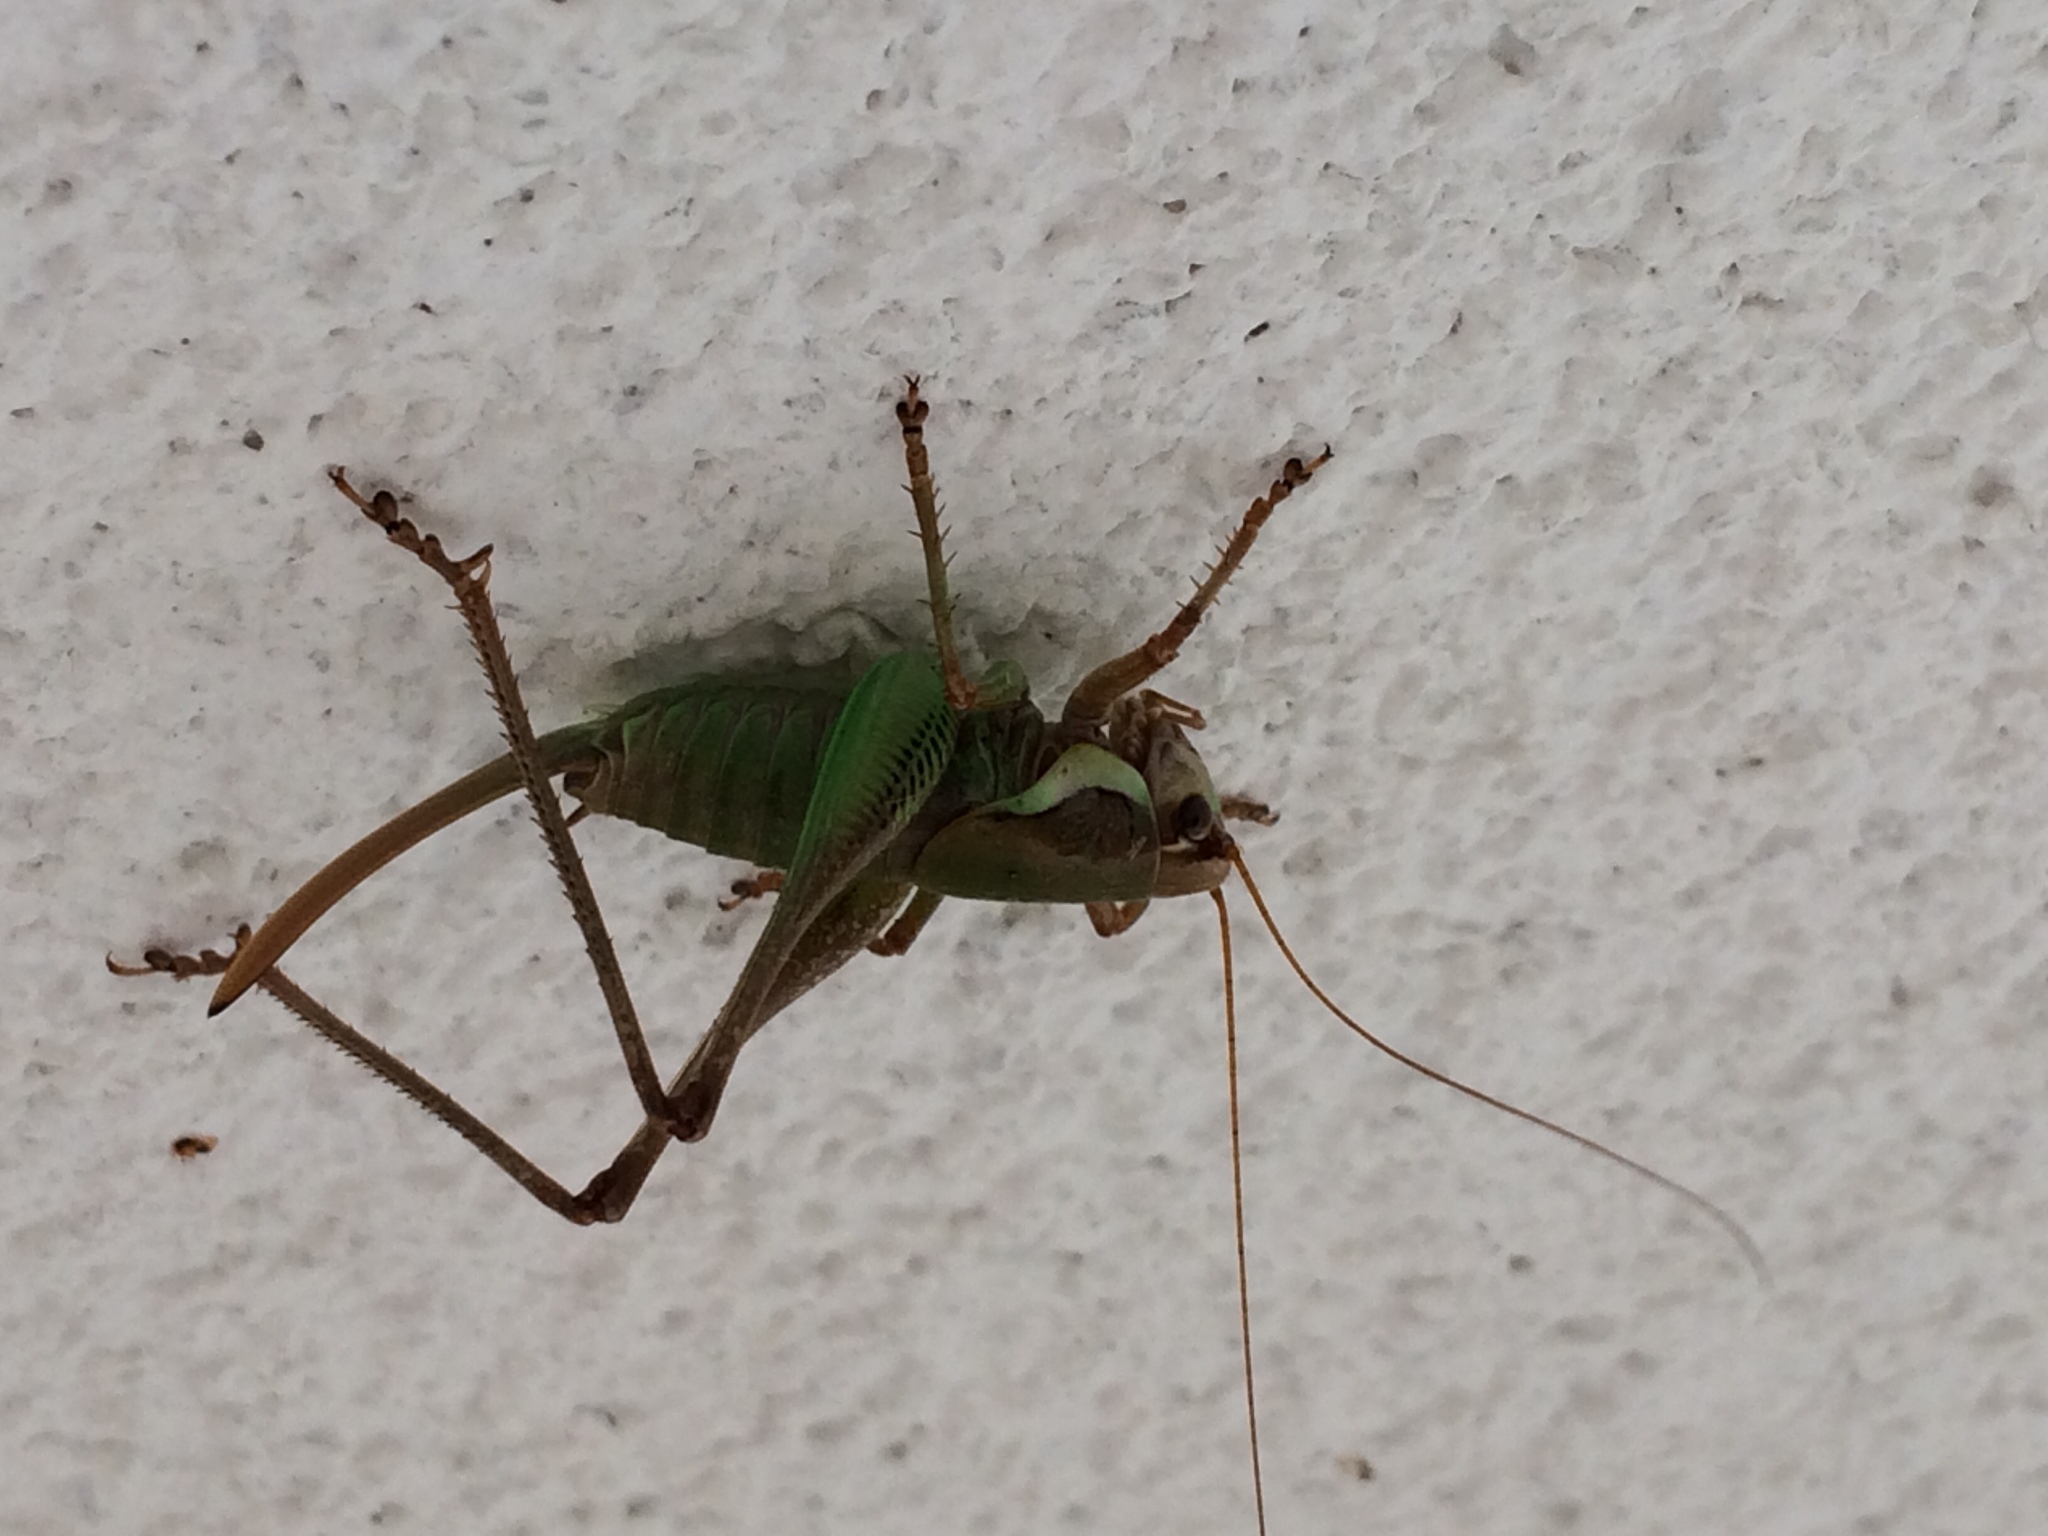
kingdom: Animalia
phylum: Arthropoda
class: Insecta
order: Orthoptera
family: Tettigoniidae
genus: Eupholidoptera
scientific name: Eupholidoptera schmidti
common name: Schmidt's marbled bush-cricket
